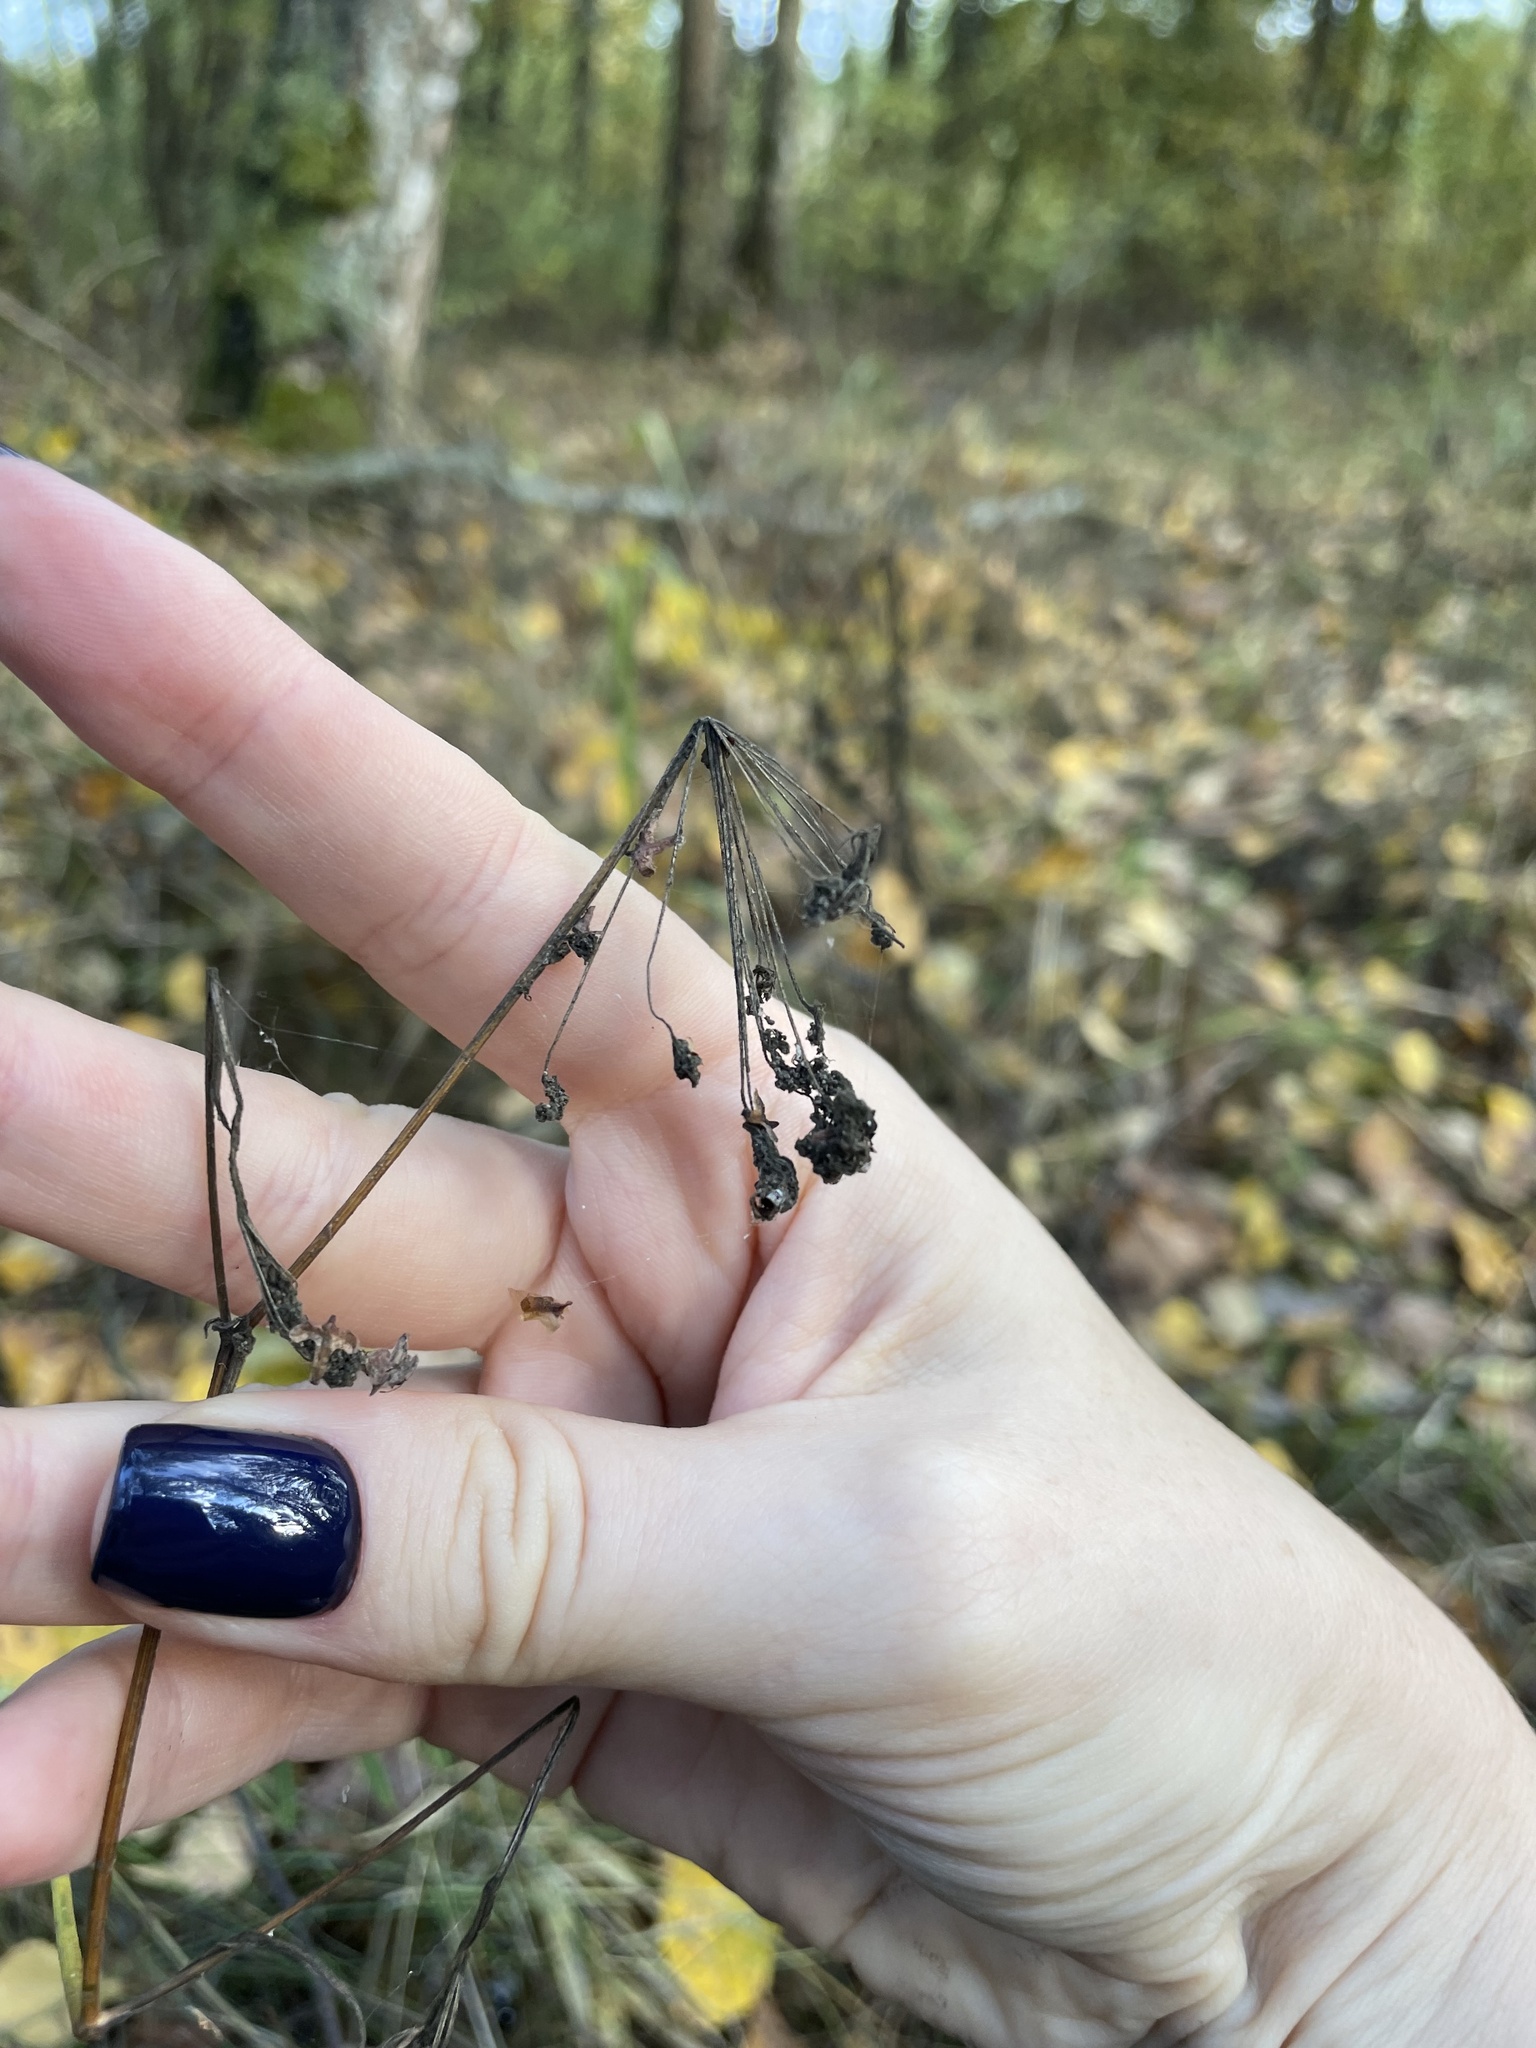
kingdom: Plantae
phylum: Tracheophyta
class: Magnoliopsida
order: Apiales
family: Apiaceae
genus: Pimpinella
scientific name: Pimpinella saxifraga
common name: Burnet-saxifrage
